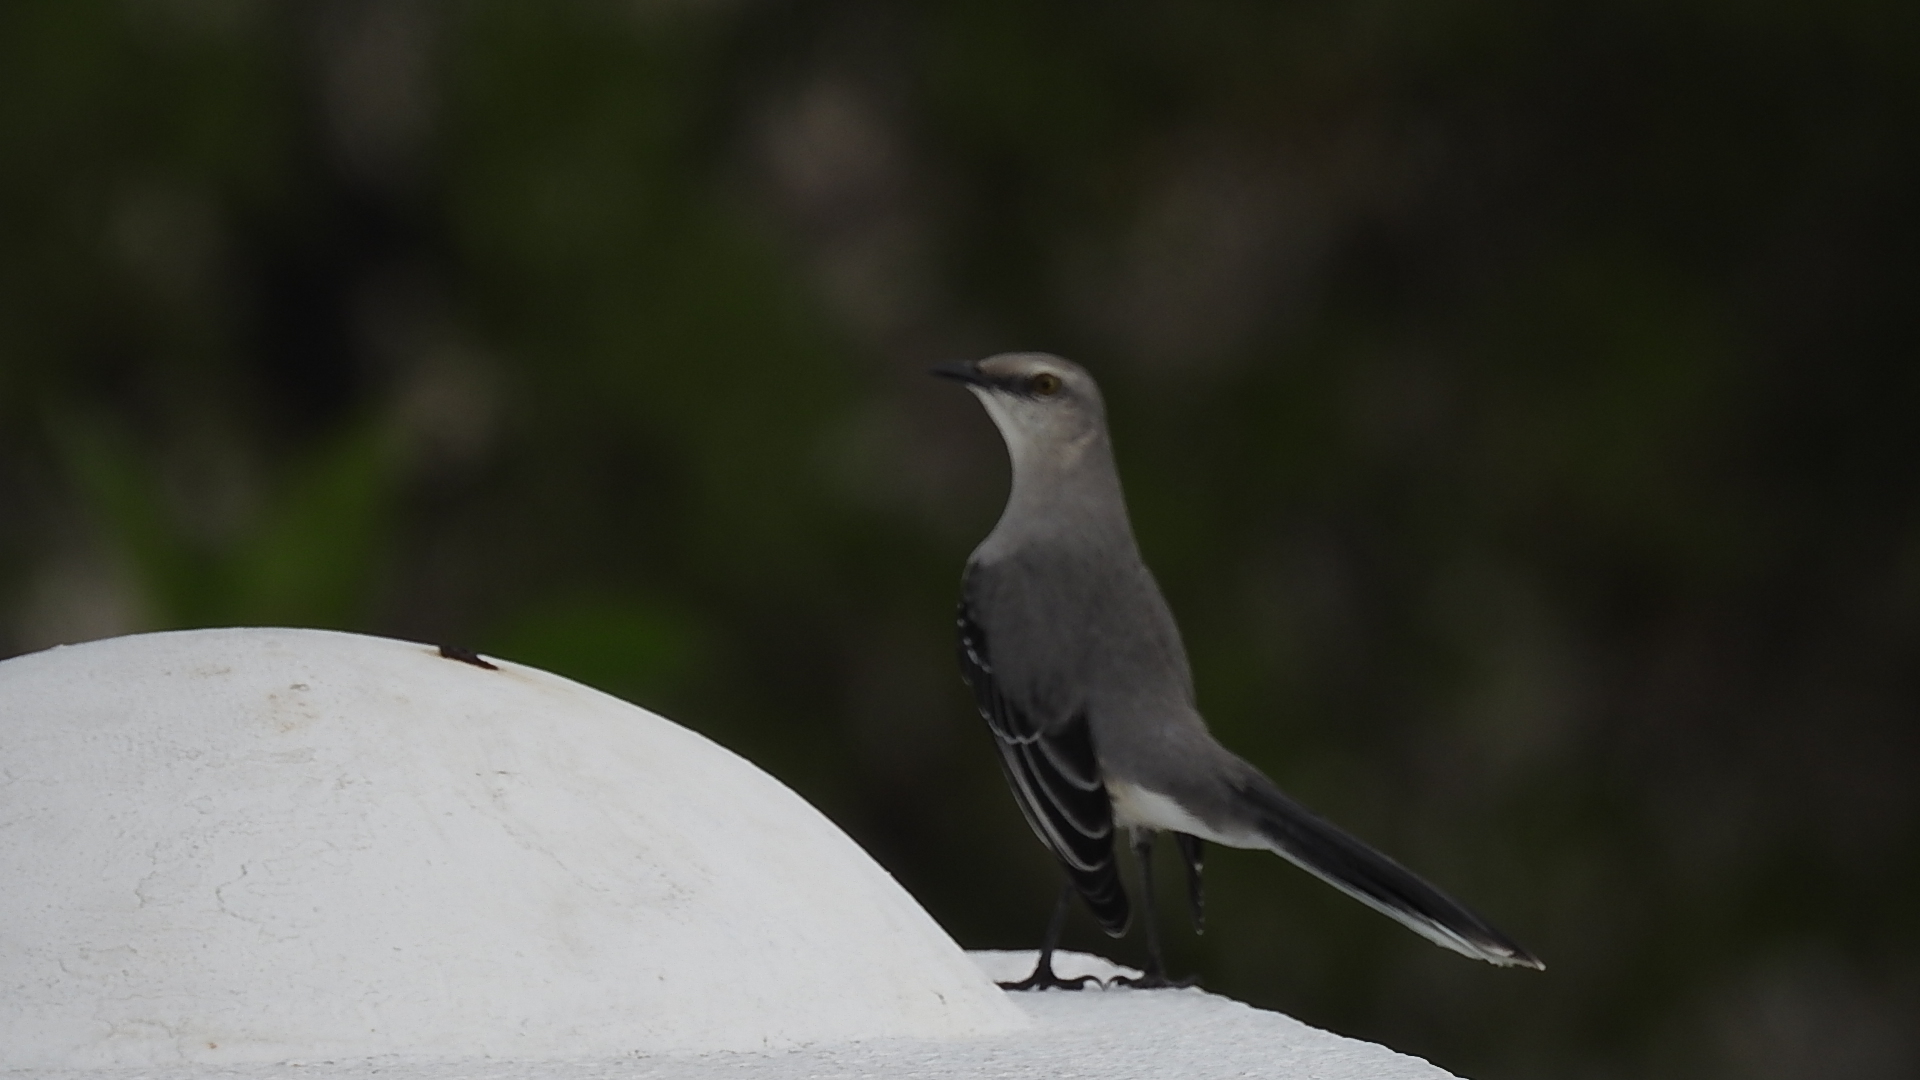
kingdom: Animalia
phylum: Chordata
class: Aves
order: Passeriformes
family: Mimidae
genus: Mimus
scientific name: Mimus gilvus
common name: Tropical mockingbird
